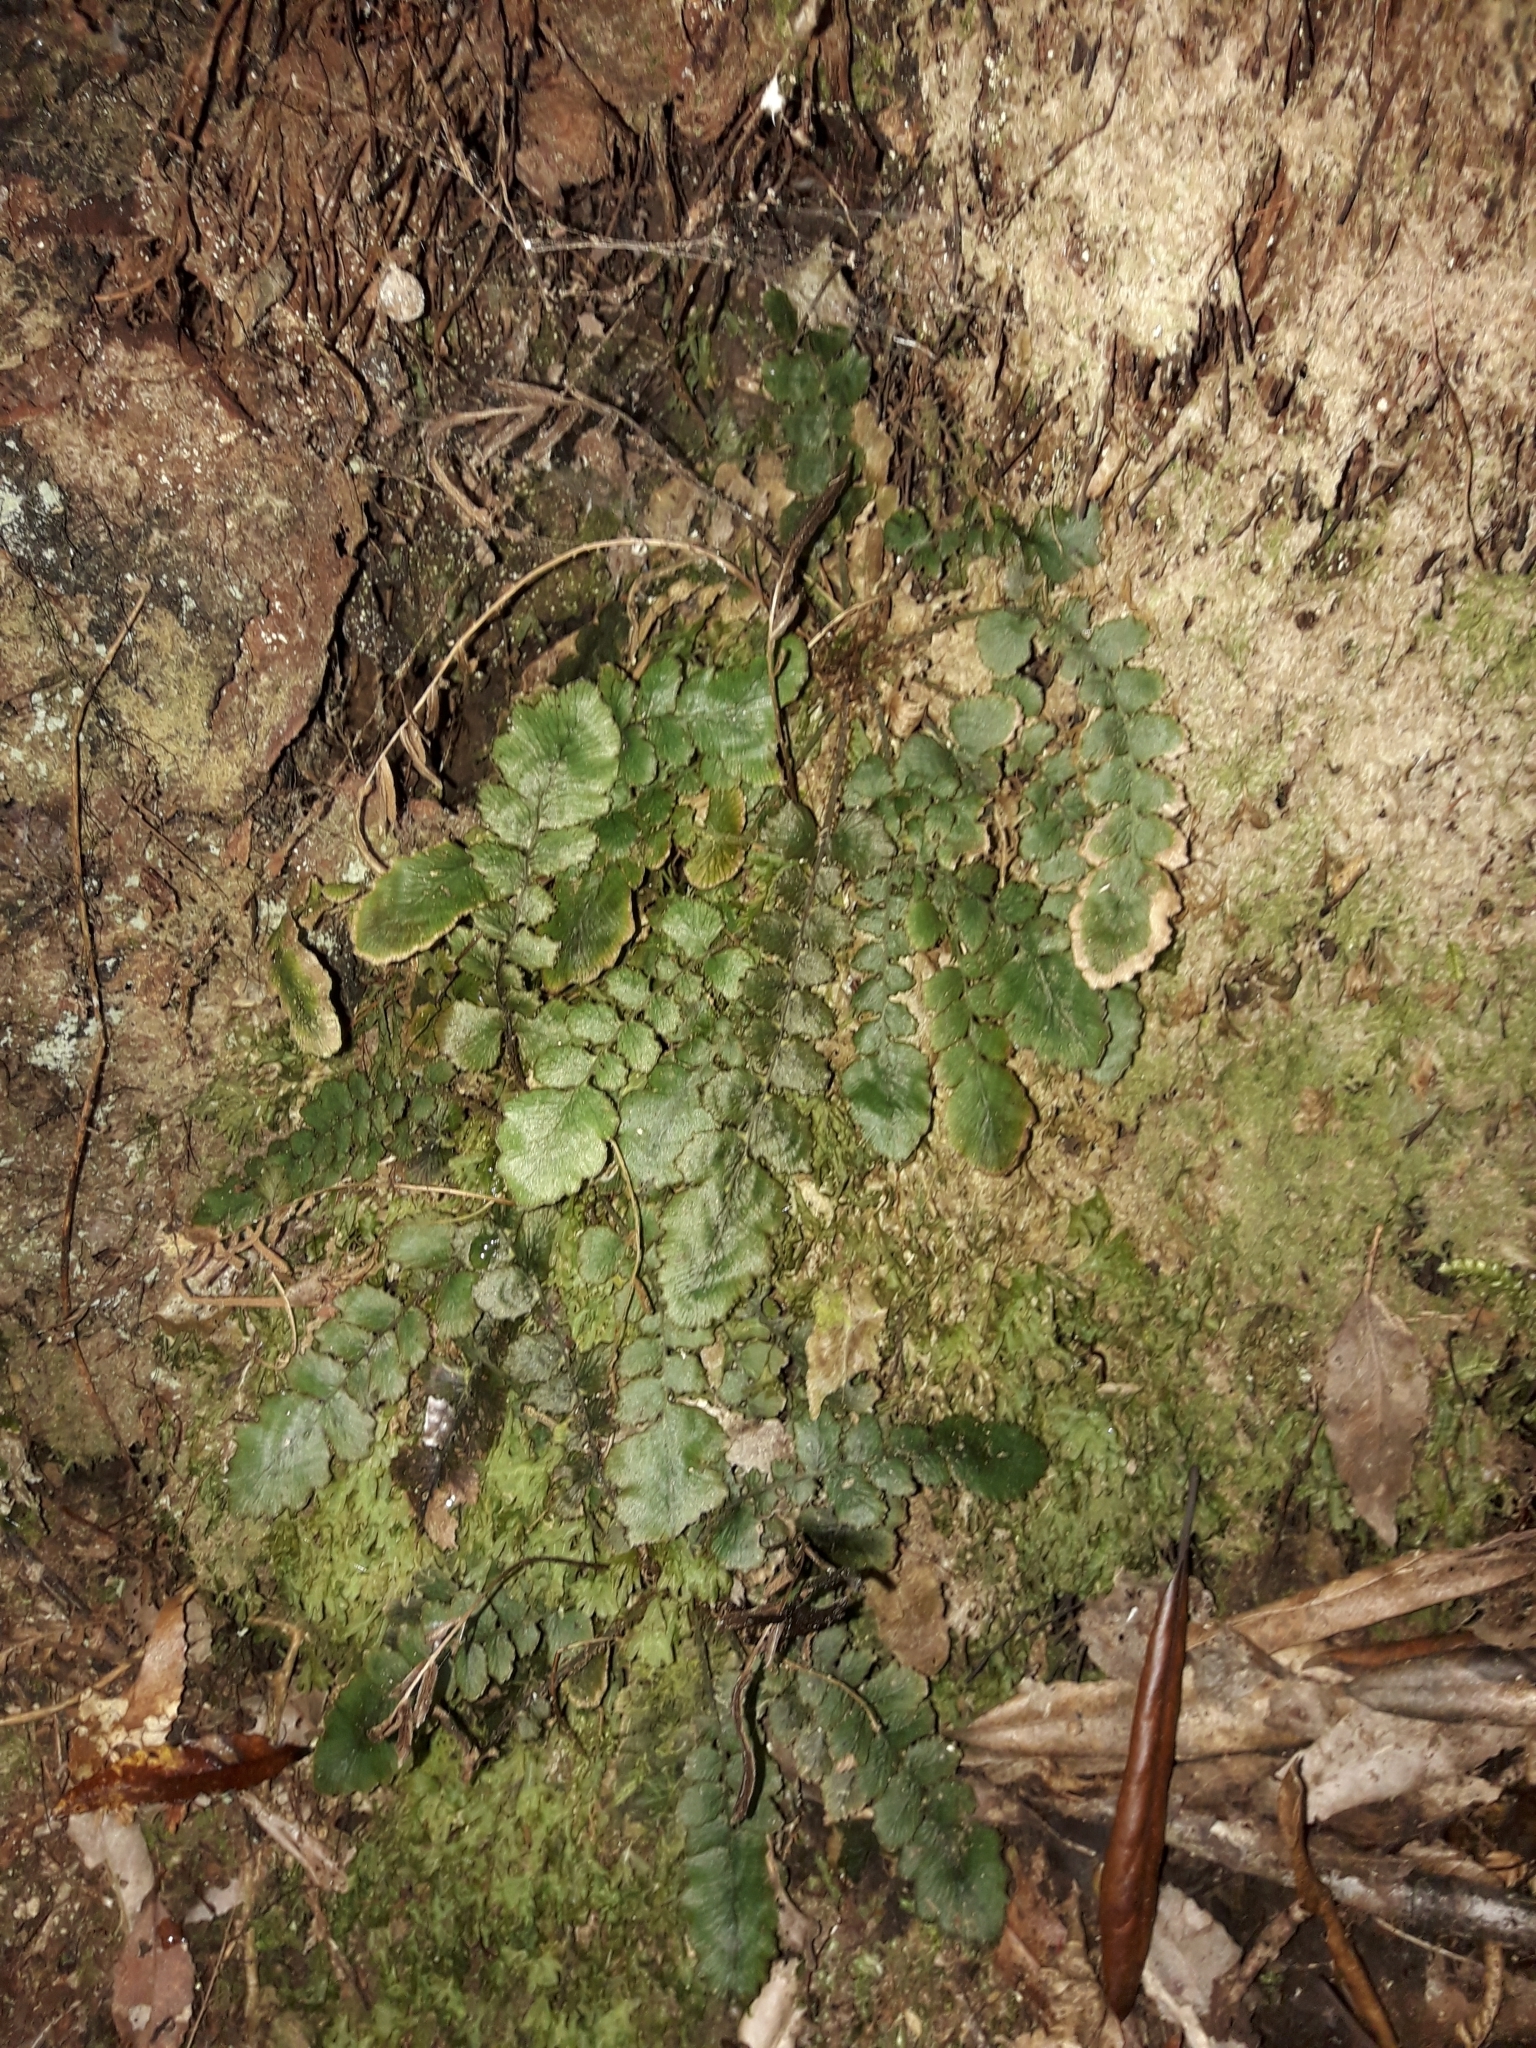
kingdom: Plantae
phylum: Tracheophyta
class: Polypodiopsida
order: Polypodiales
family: Blechnaceae
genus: Cranfillia
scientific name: Cranfillia nigra
